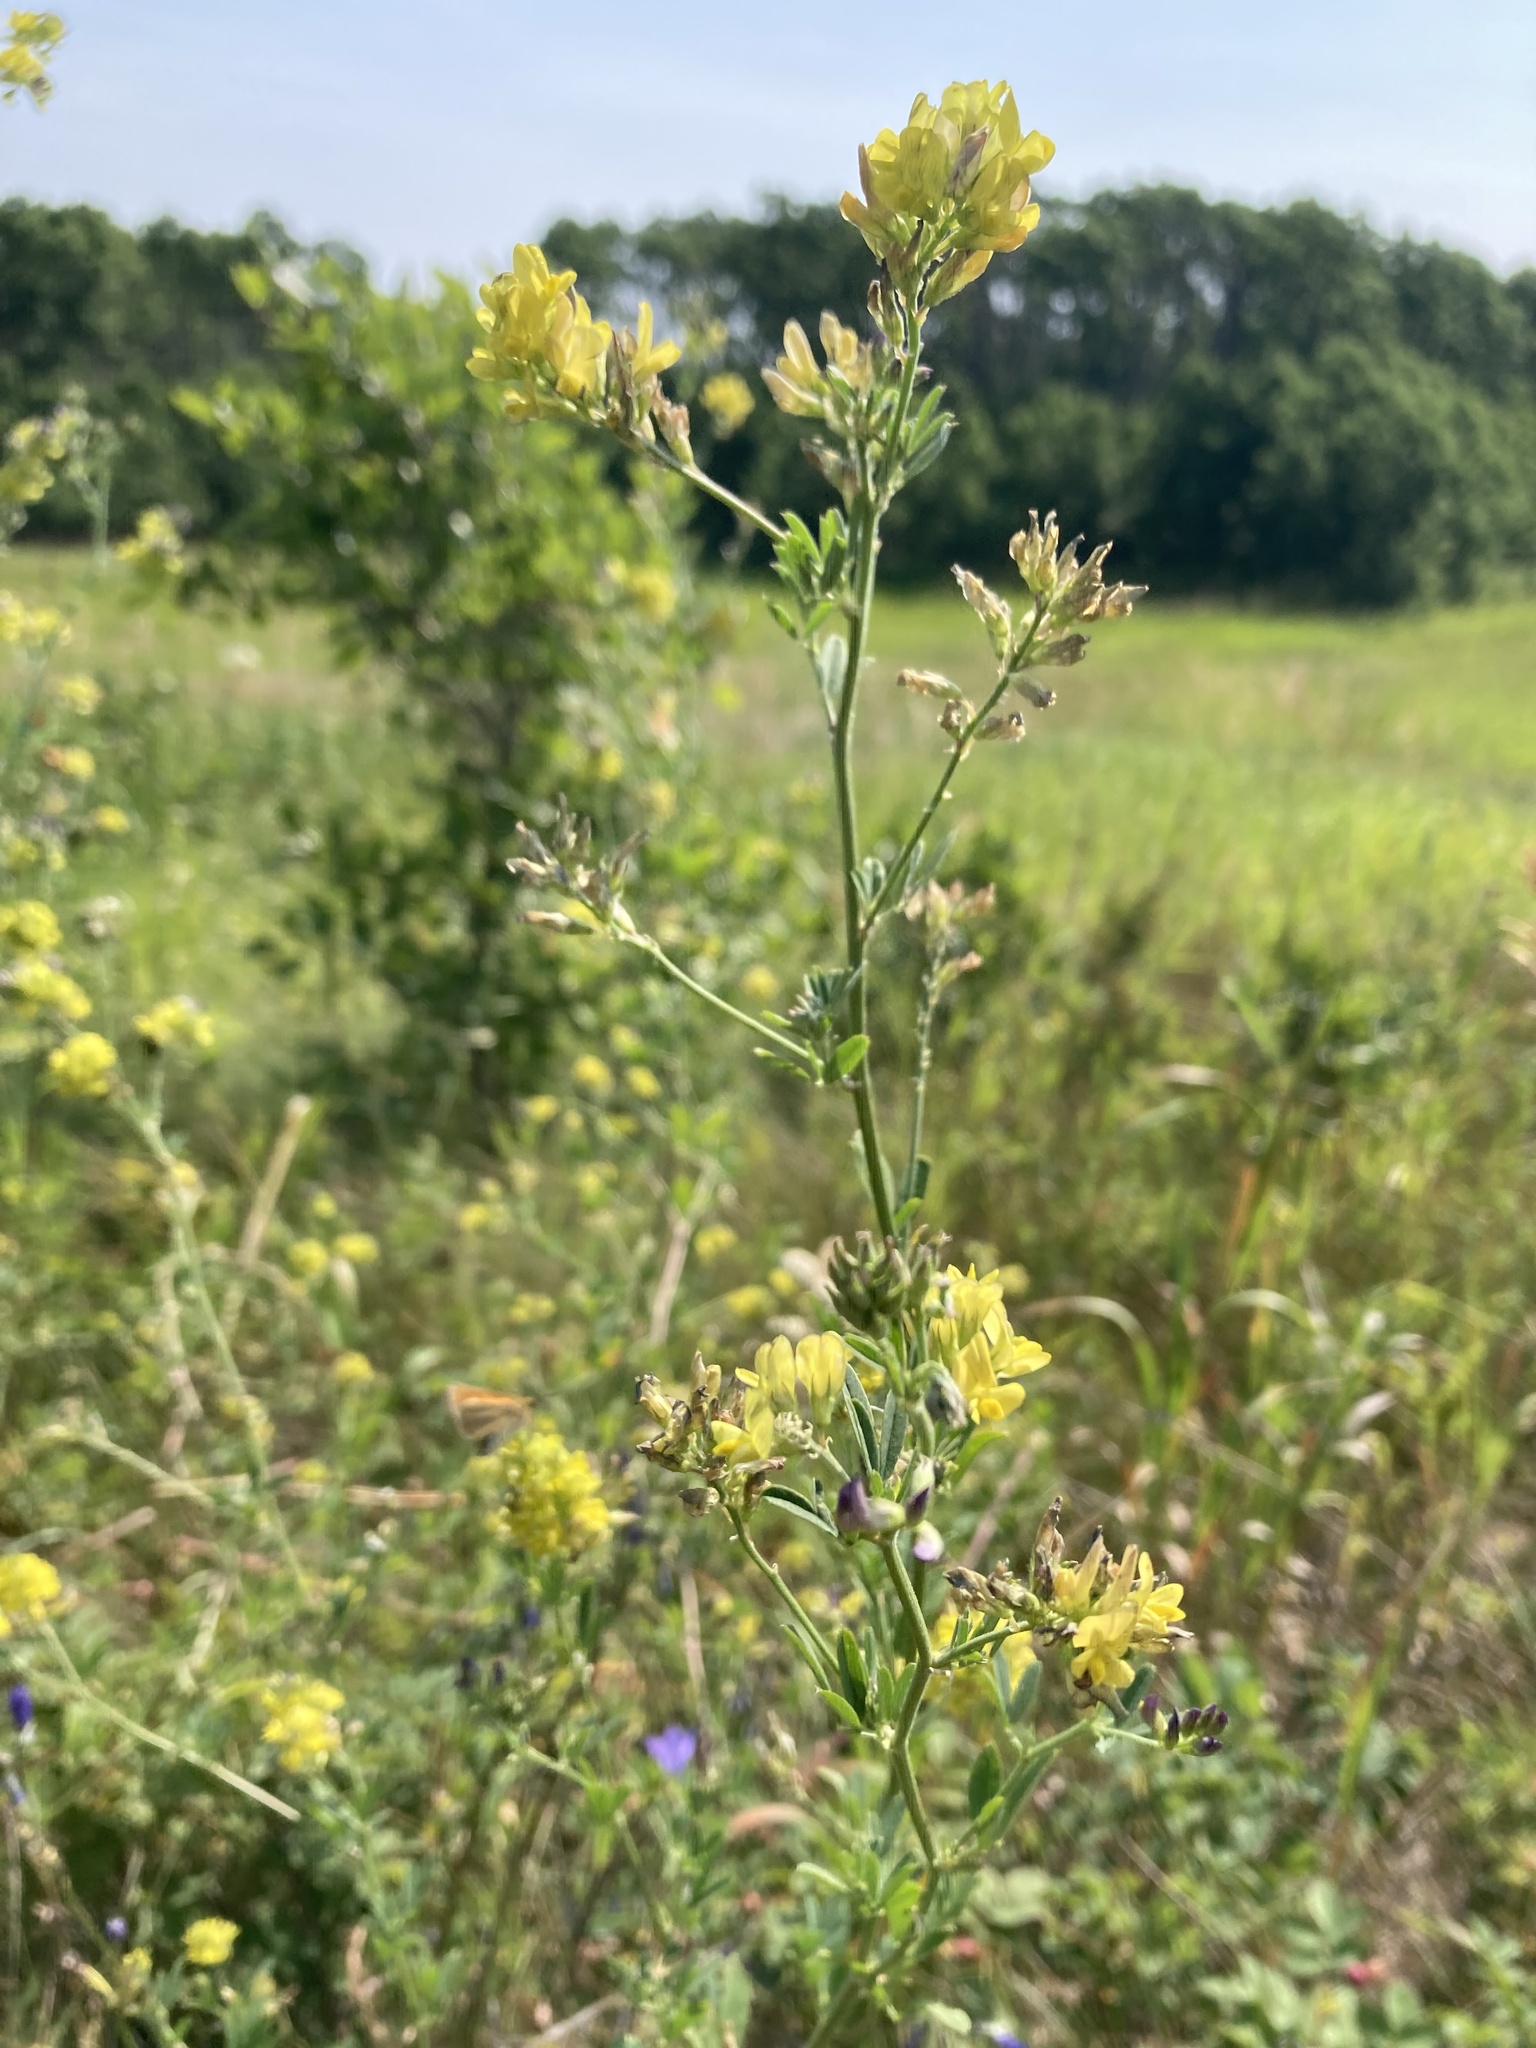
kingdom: Plantae
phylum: Tracheophyta
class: Magnoliopsida
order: Fabales
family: Fabaceae
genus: Medicago
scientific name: Medicago falcata
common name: Sickle medick
